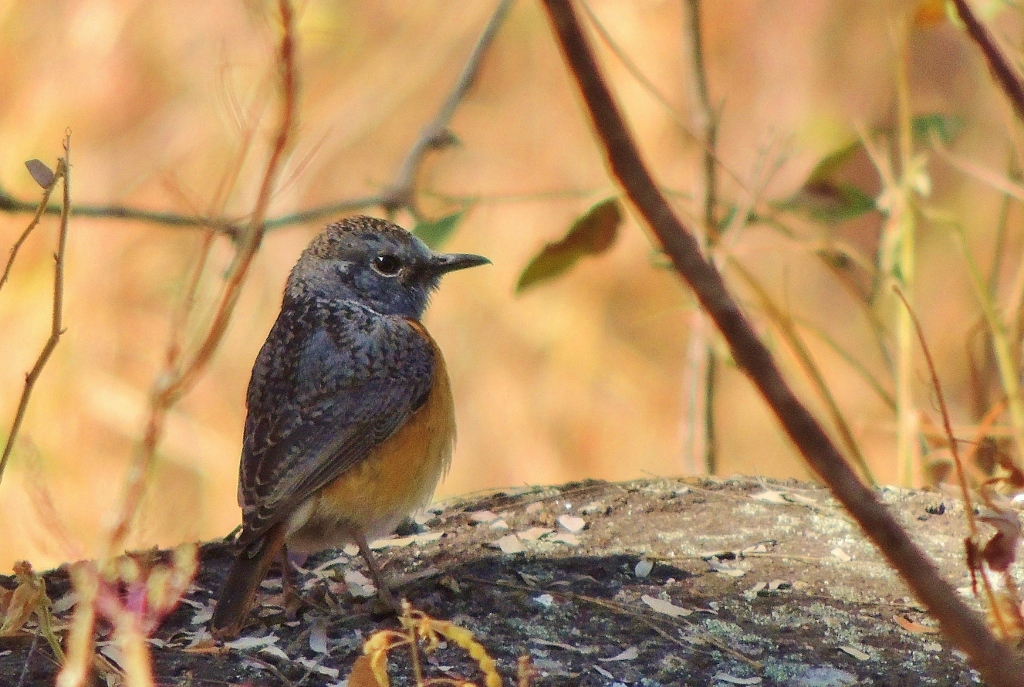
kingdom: Animalia
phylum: Chordata
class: Aves
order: Passeriformes
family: Muscicapidae
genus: Monticola
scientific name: Monticola angolensis
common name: Miombo rock thrush
